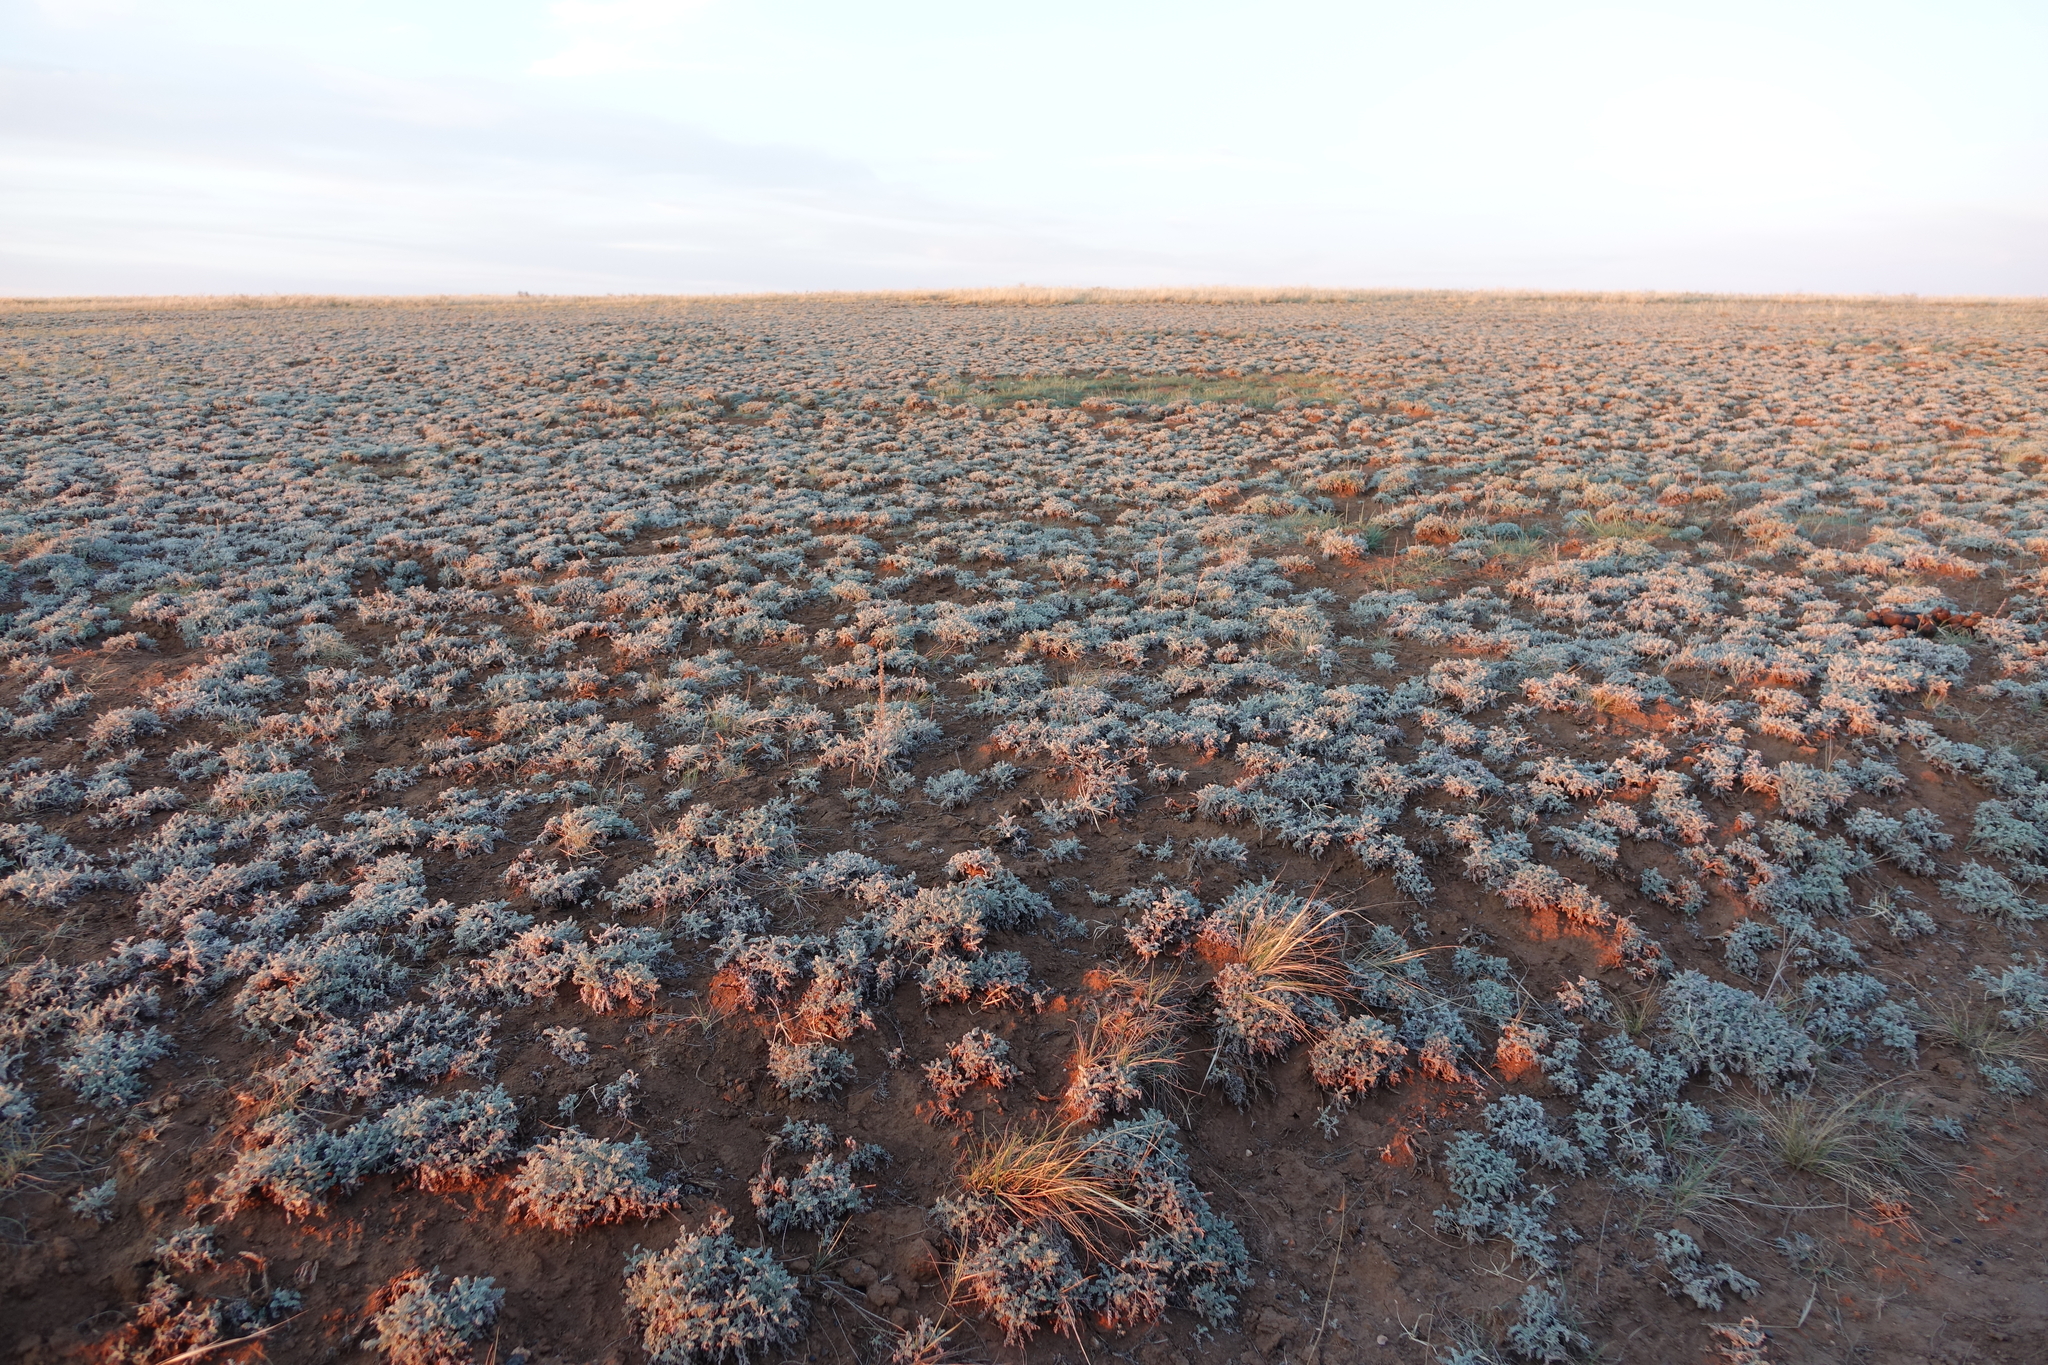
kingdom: Plantae
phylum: Tracheophyta
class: Magnoliopsida
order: Asterales
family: Asteraceae
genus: Artemisia
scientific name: Artemisia nitrosa
